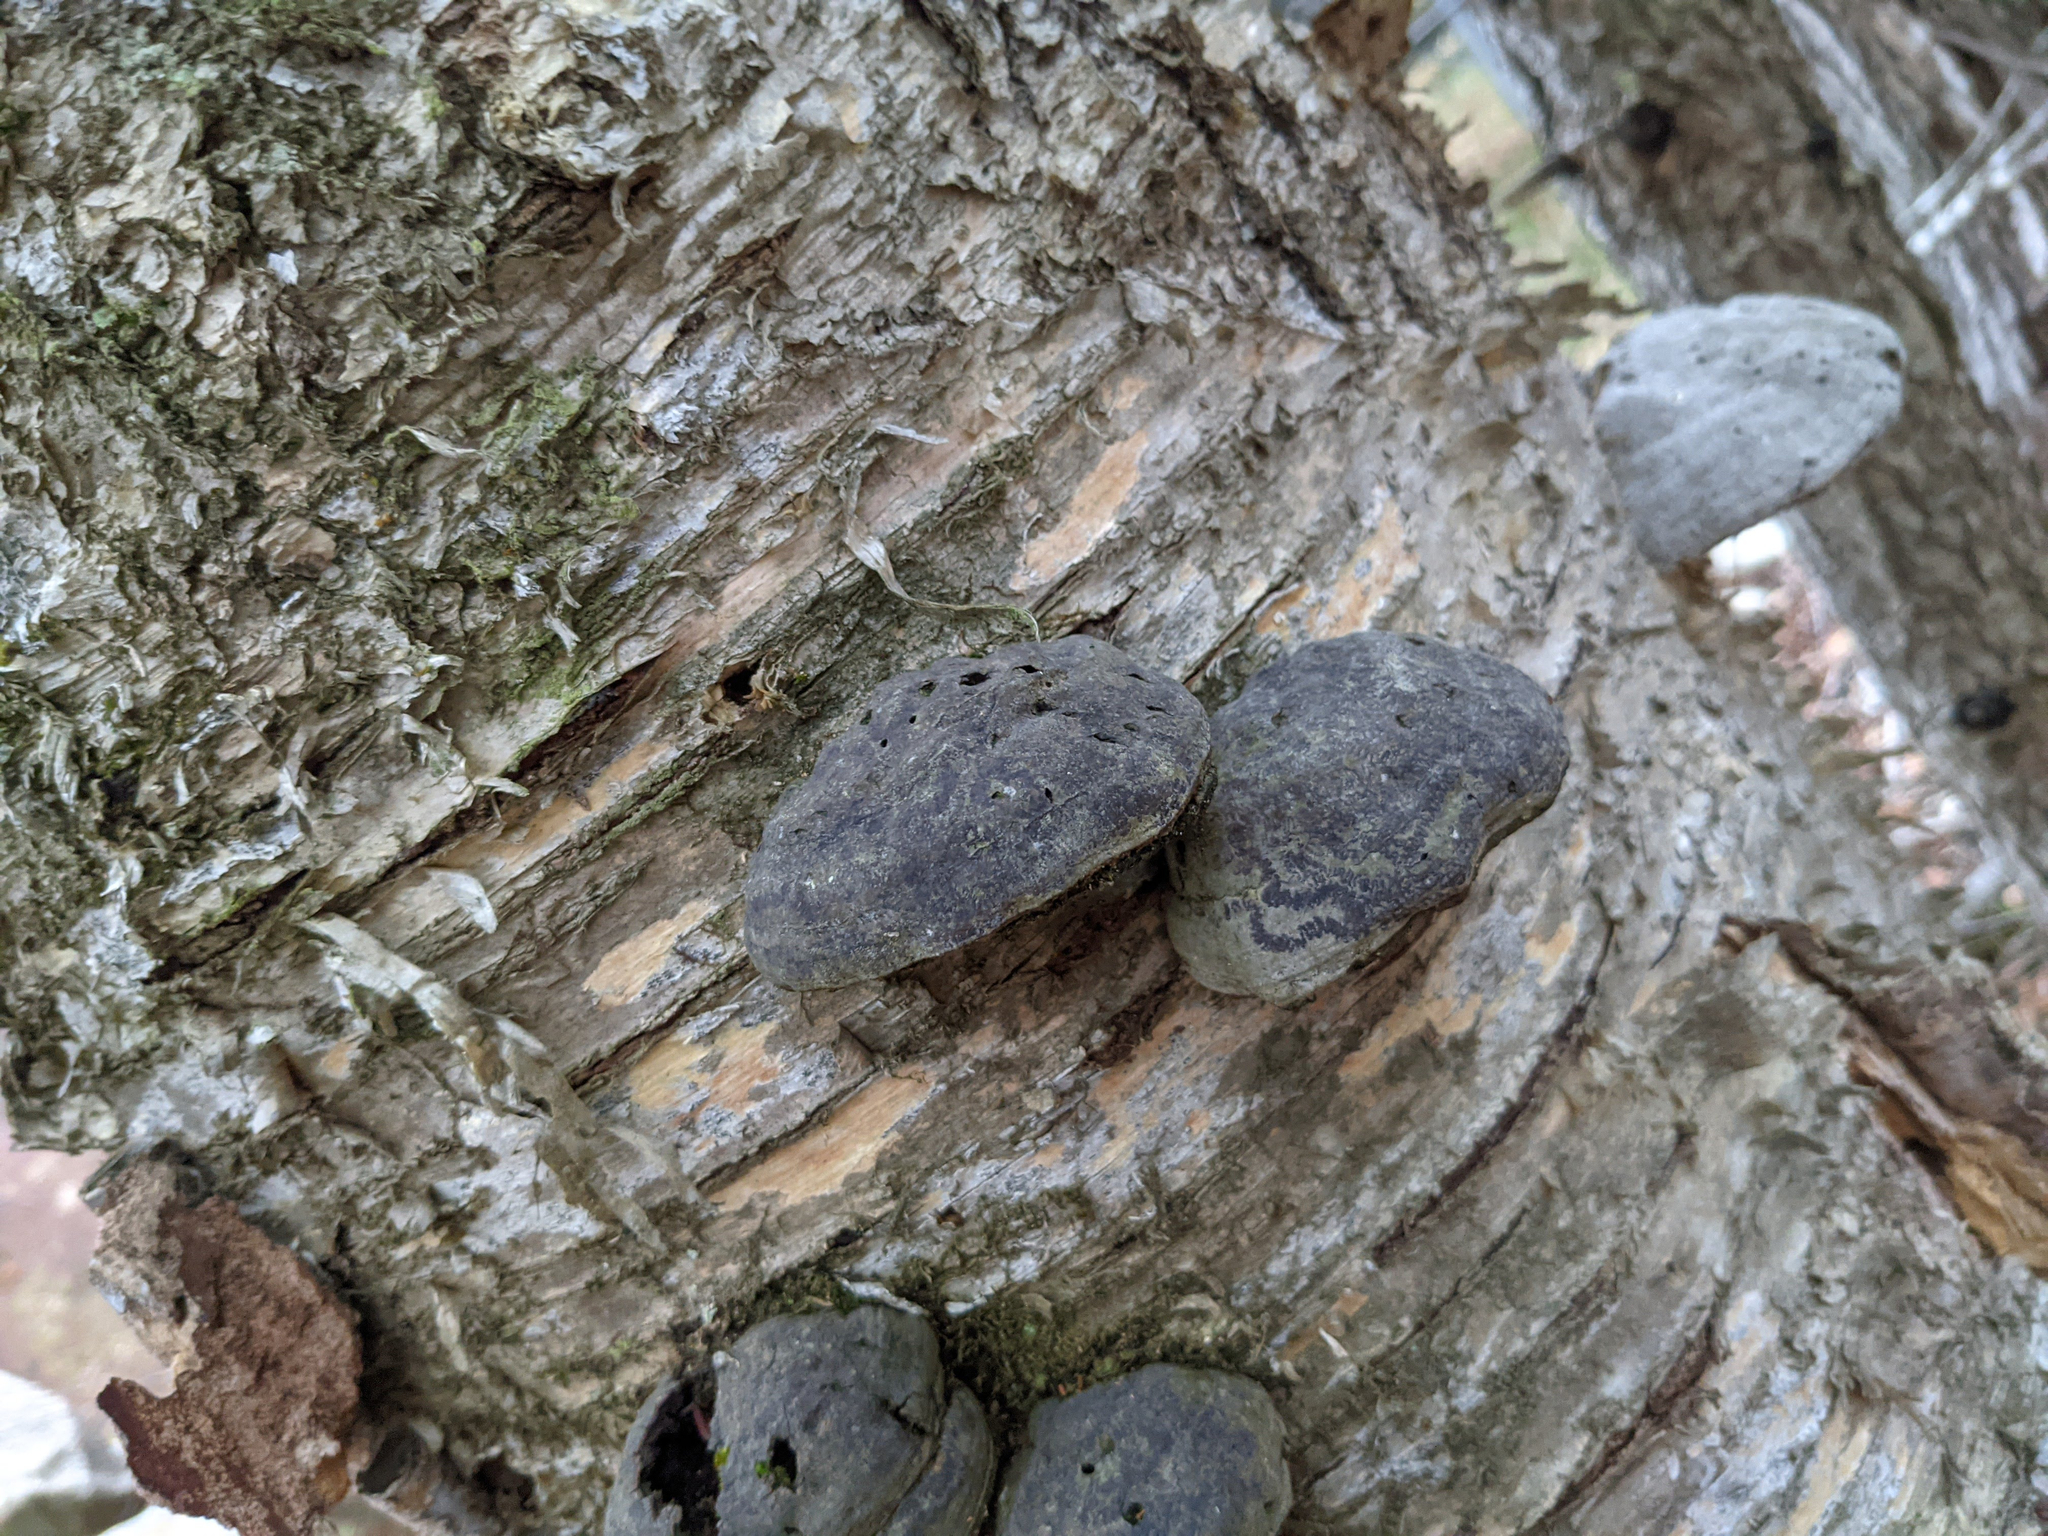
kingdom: Fungi
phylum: Basidiomycota
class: Agaricomycetes
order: Polyporales
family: Polyporaceae
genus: Fomes
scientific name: Fomes fomentarius
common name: Hoof fungus
